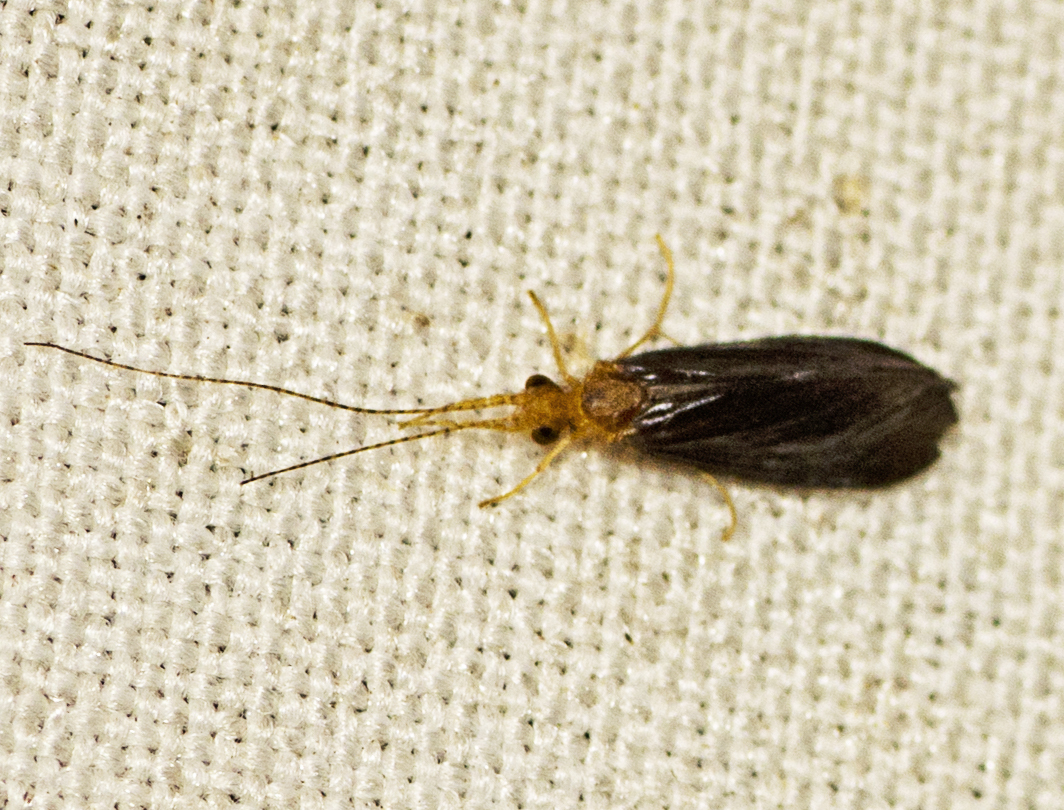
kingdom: Animalia
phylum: Arthropoda
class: Insecta
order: Trichoptera
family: Calamoceratidae
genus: Anisocentropus
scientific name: Anisocentropus latifascia
